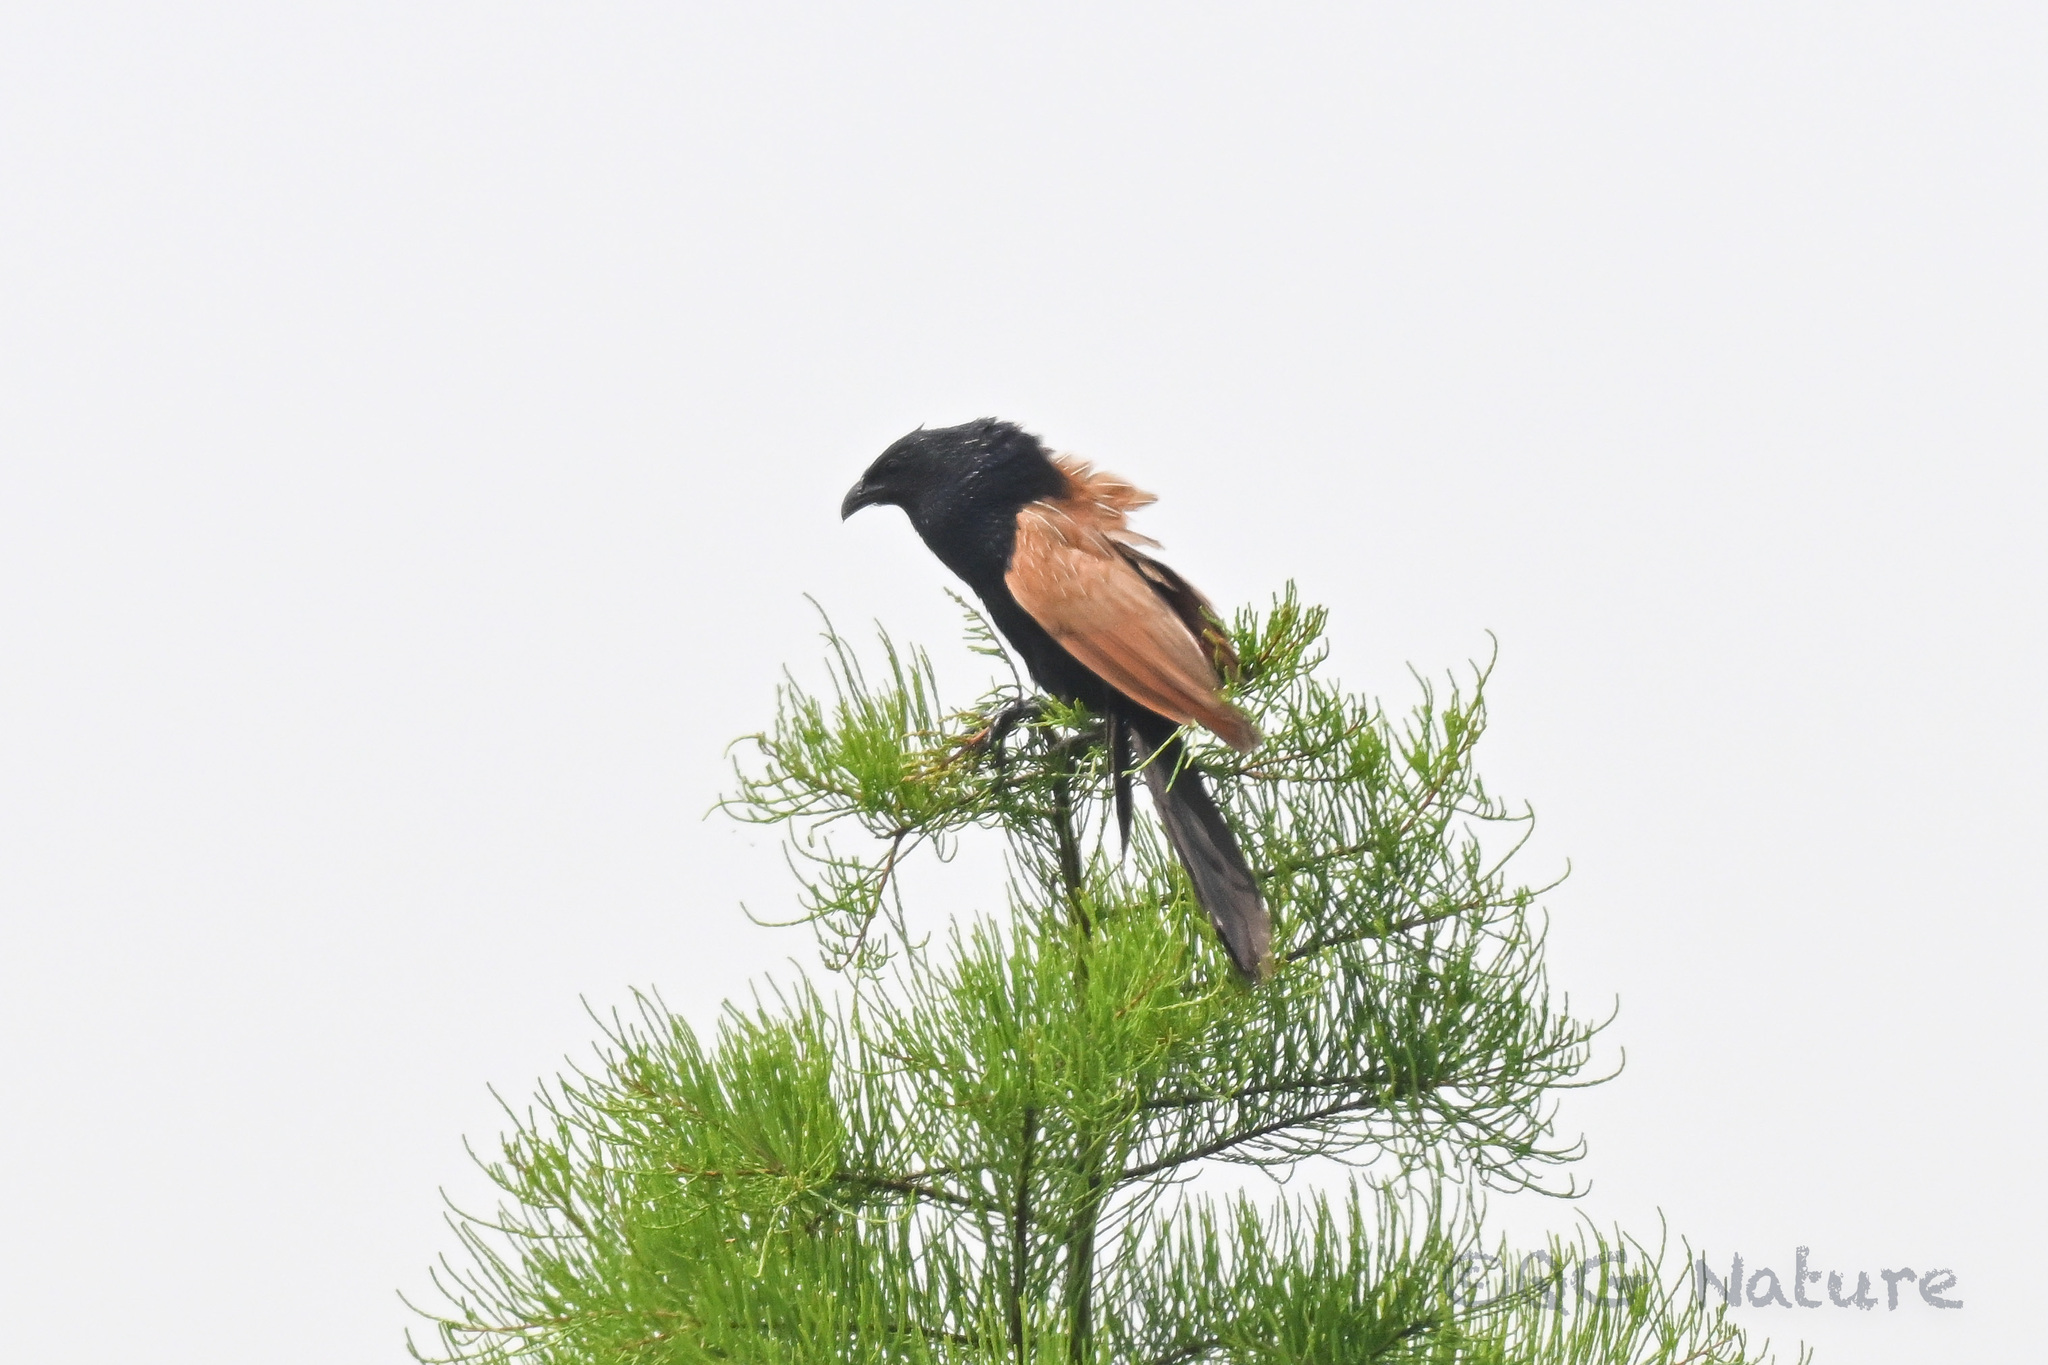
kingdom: Animalia
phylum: Chordata
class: Aves
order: Cuculiformes
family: Cuculidae
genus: Centropus
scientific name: Centropus bengalensis
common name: Lesser coucal
